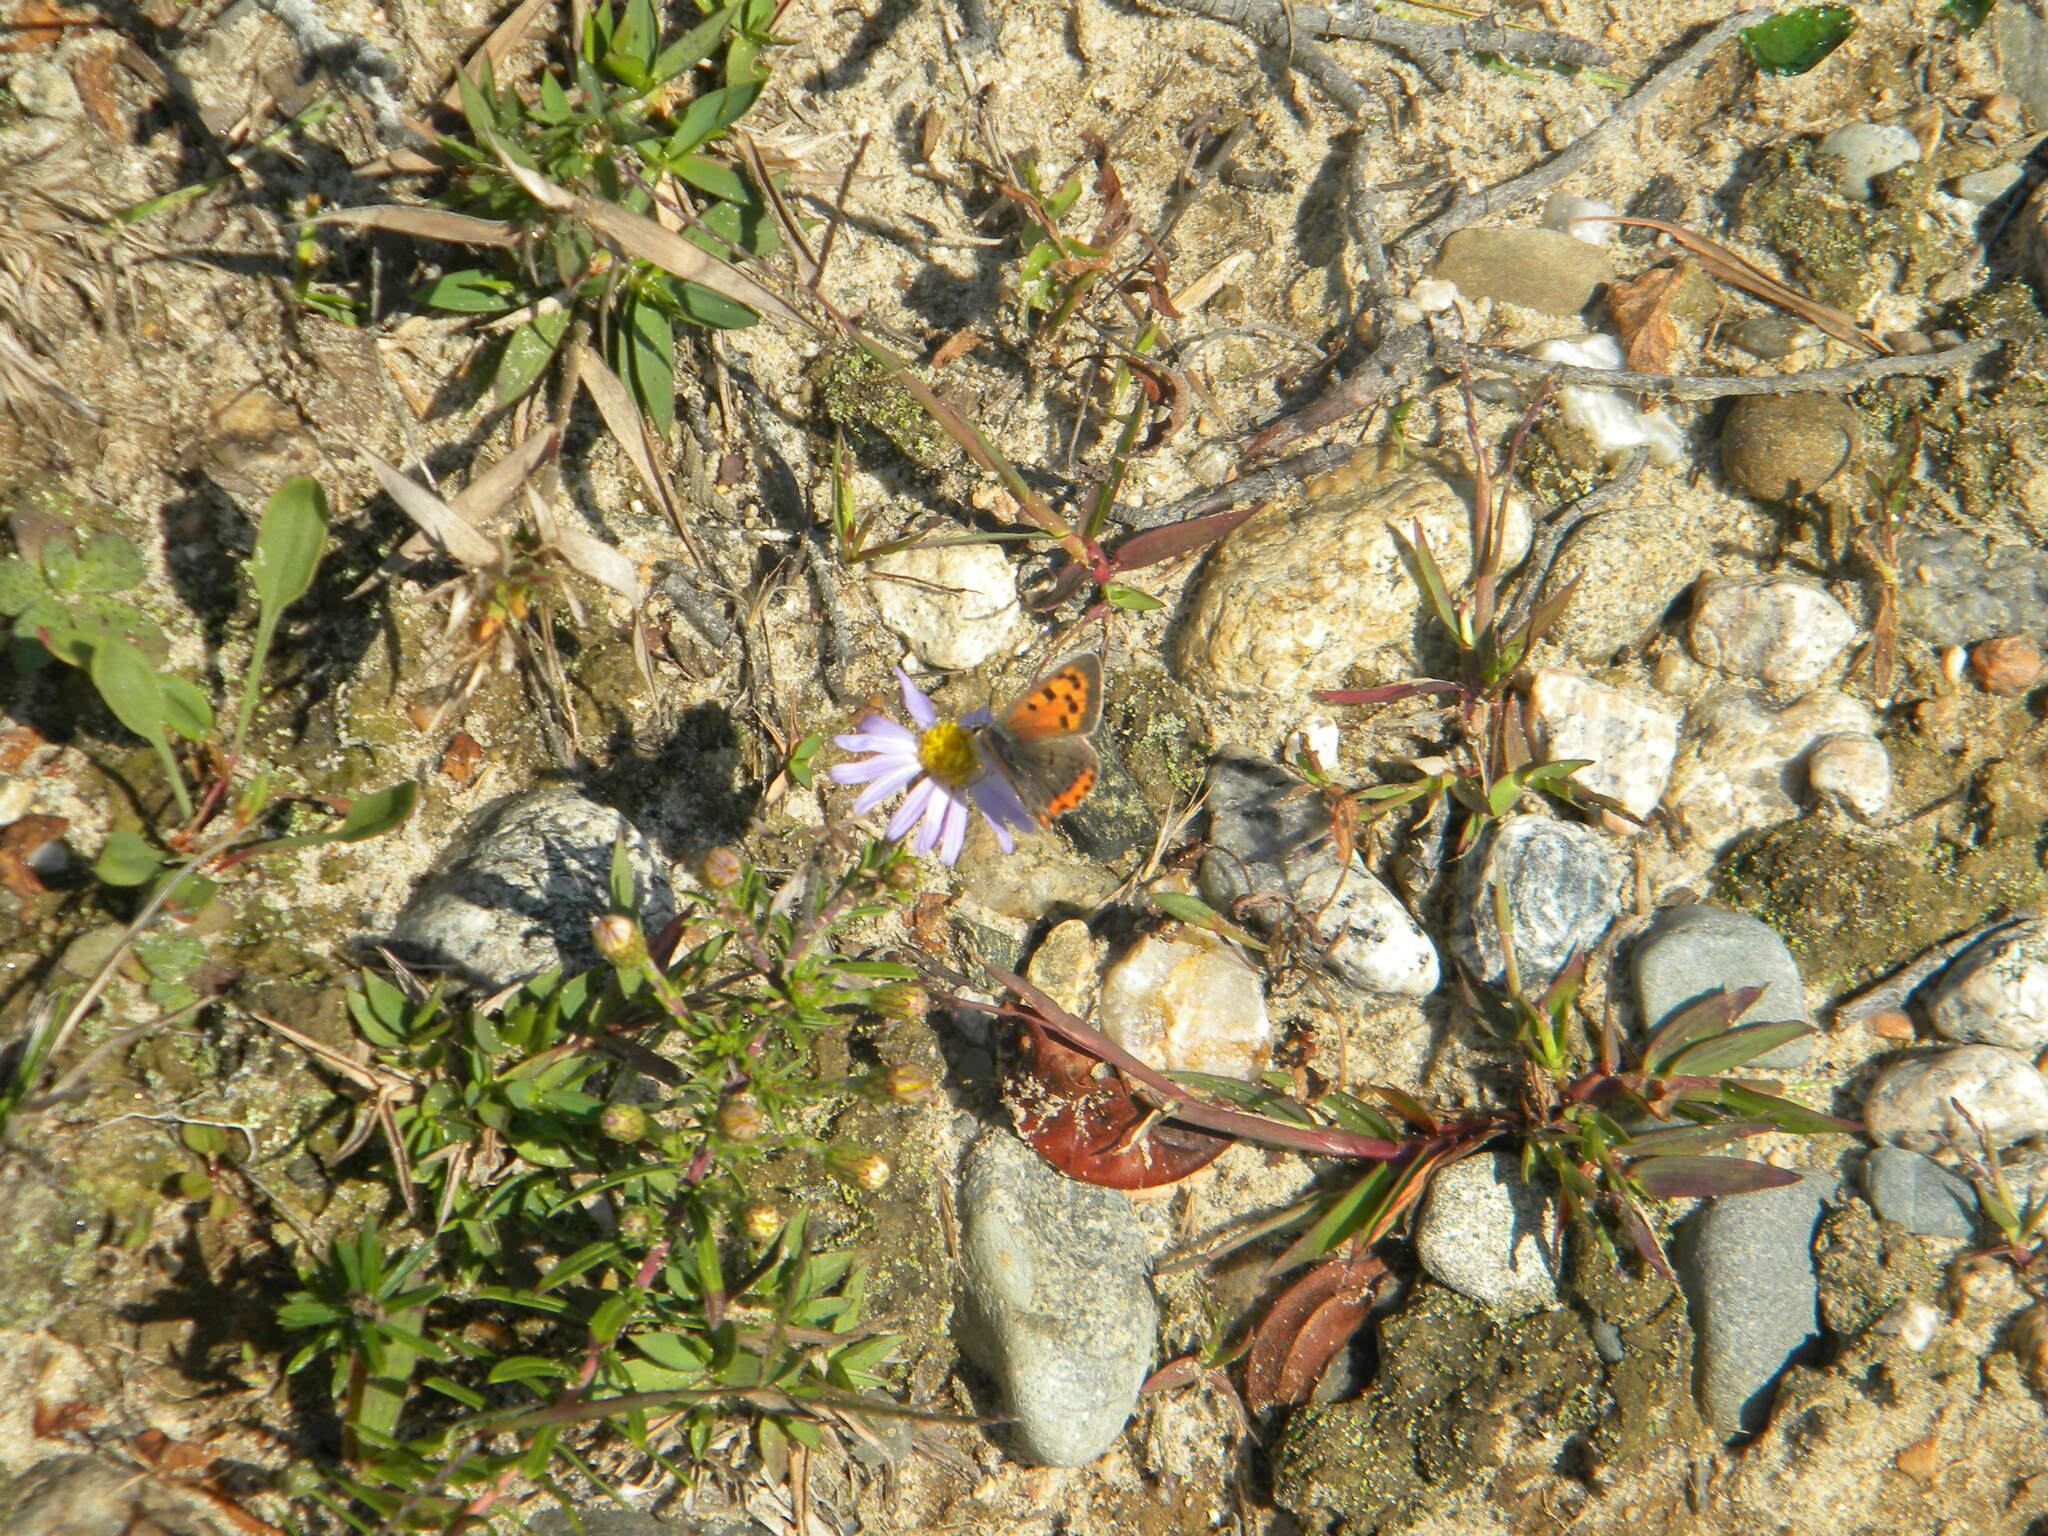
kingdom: Animalia
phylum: Arthropoda
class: Insecta
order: Lepidoptera
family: Lycaenidae
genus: Lycaena
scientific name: Lycaena hypophlaeas
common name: American copper
